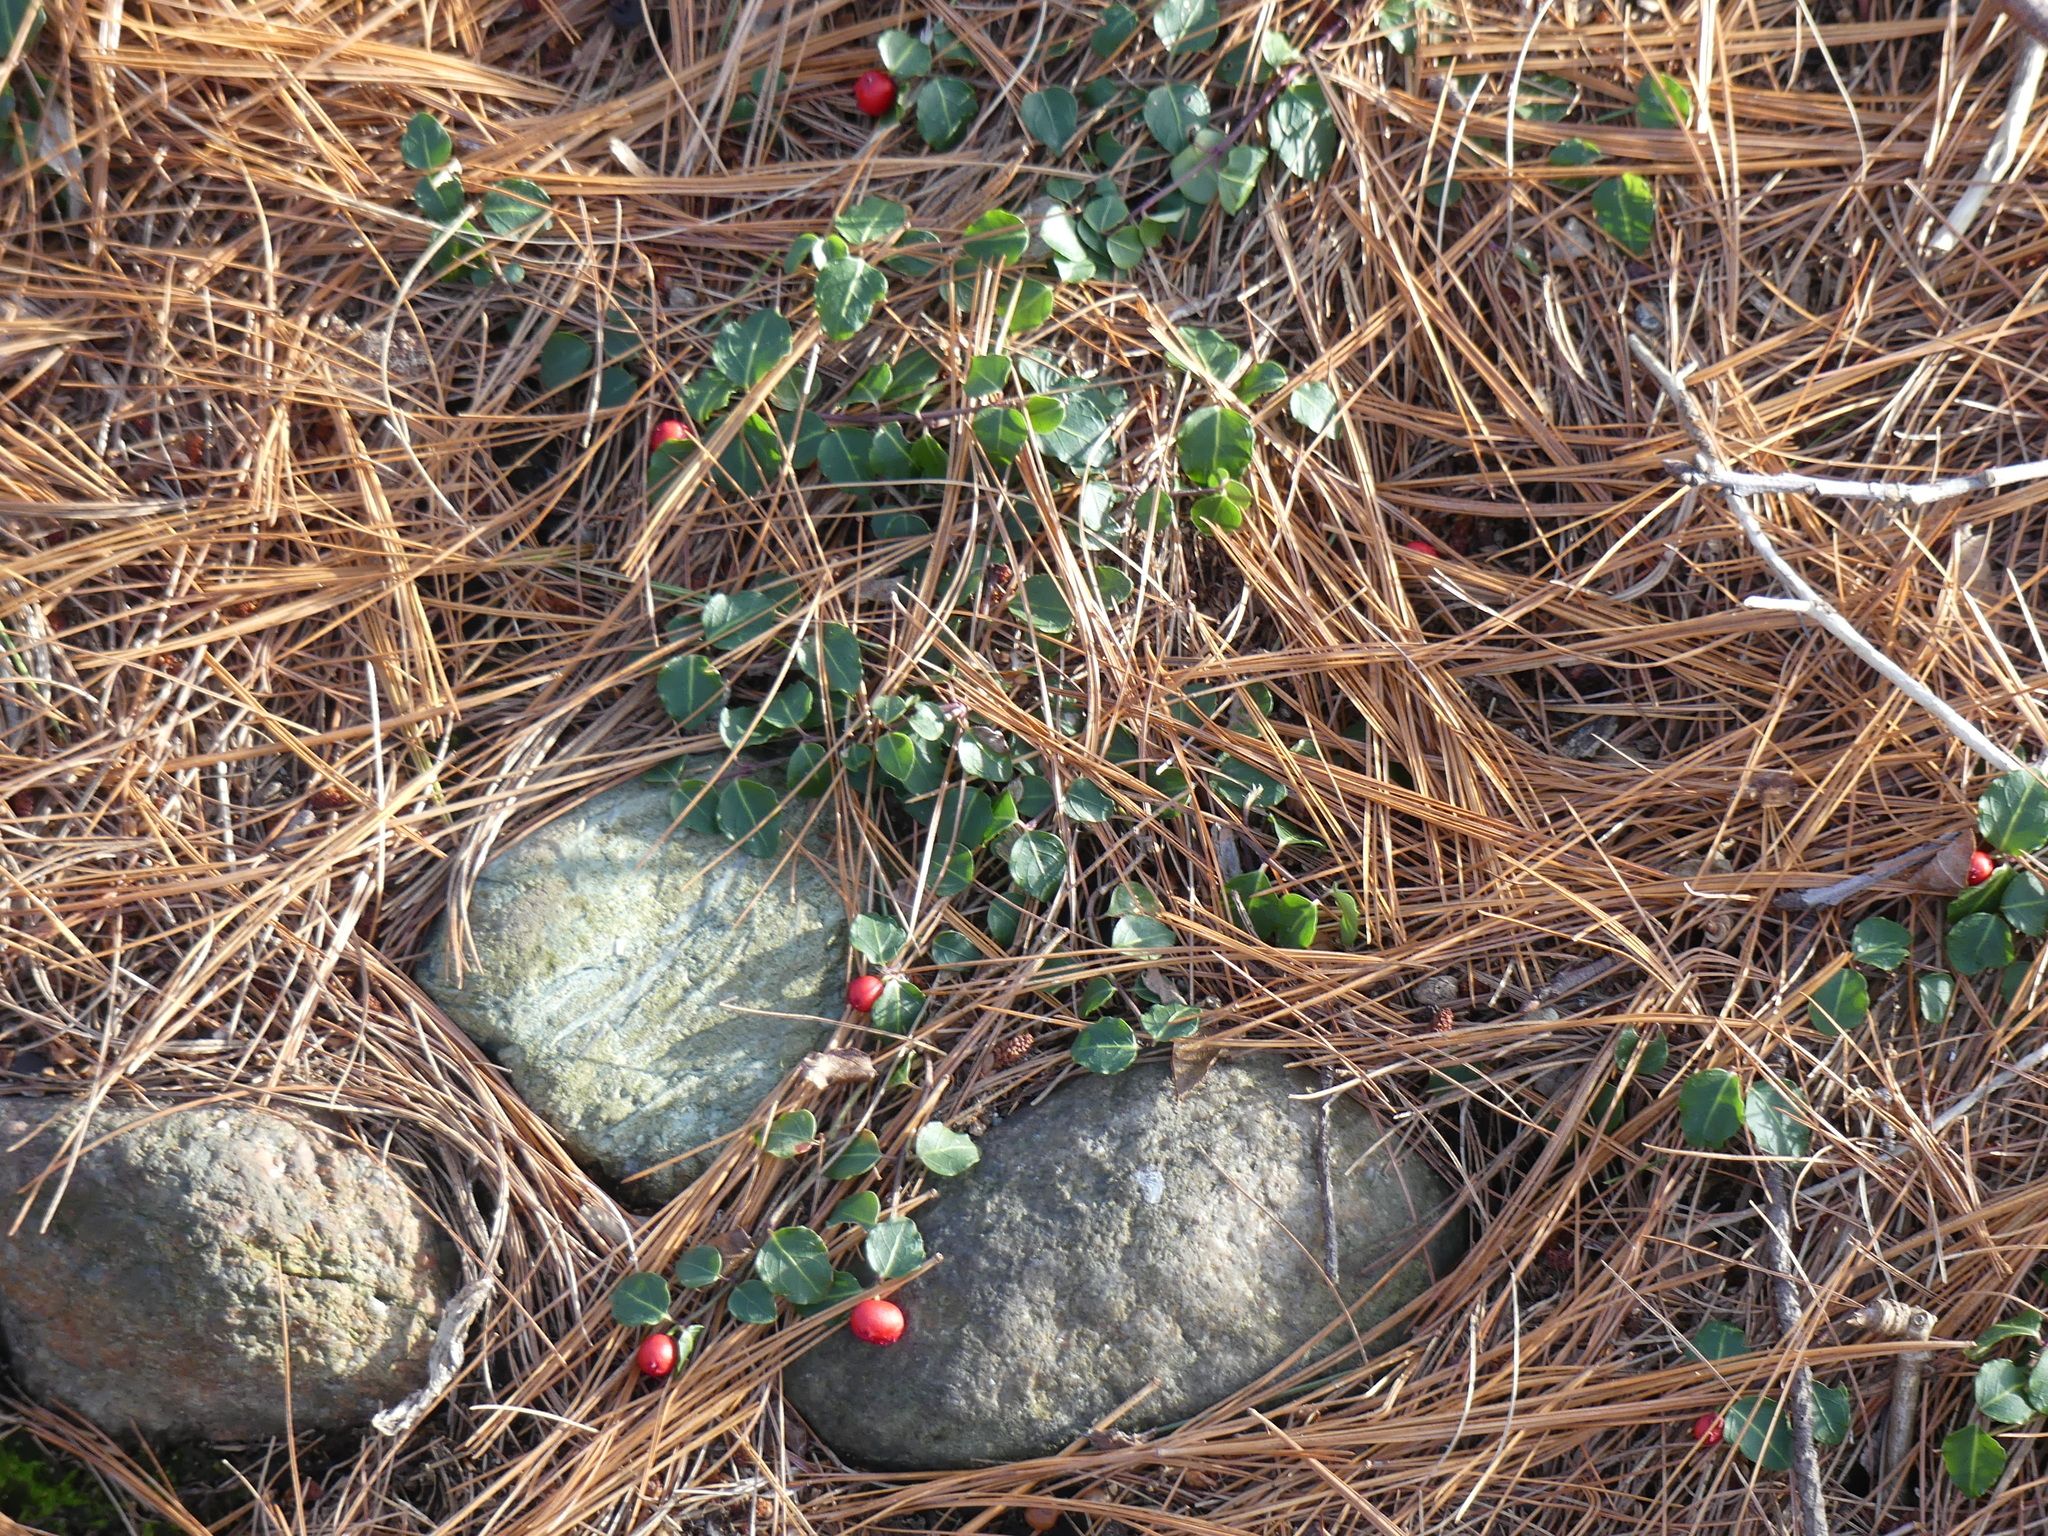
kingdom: Plantae
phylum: Tracheophyta
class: Magnoliopsida
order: Gentianales
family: Rubiaceae
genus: Mitchella
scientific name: Mitchella repens
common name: Partridge-berry
